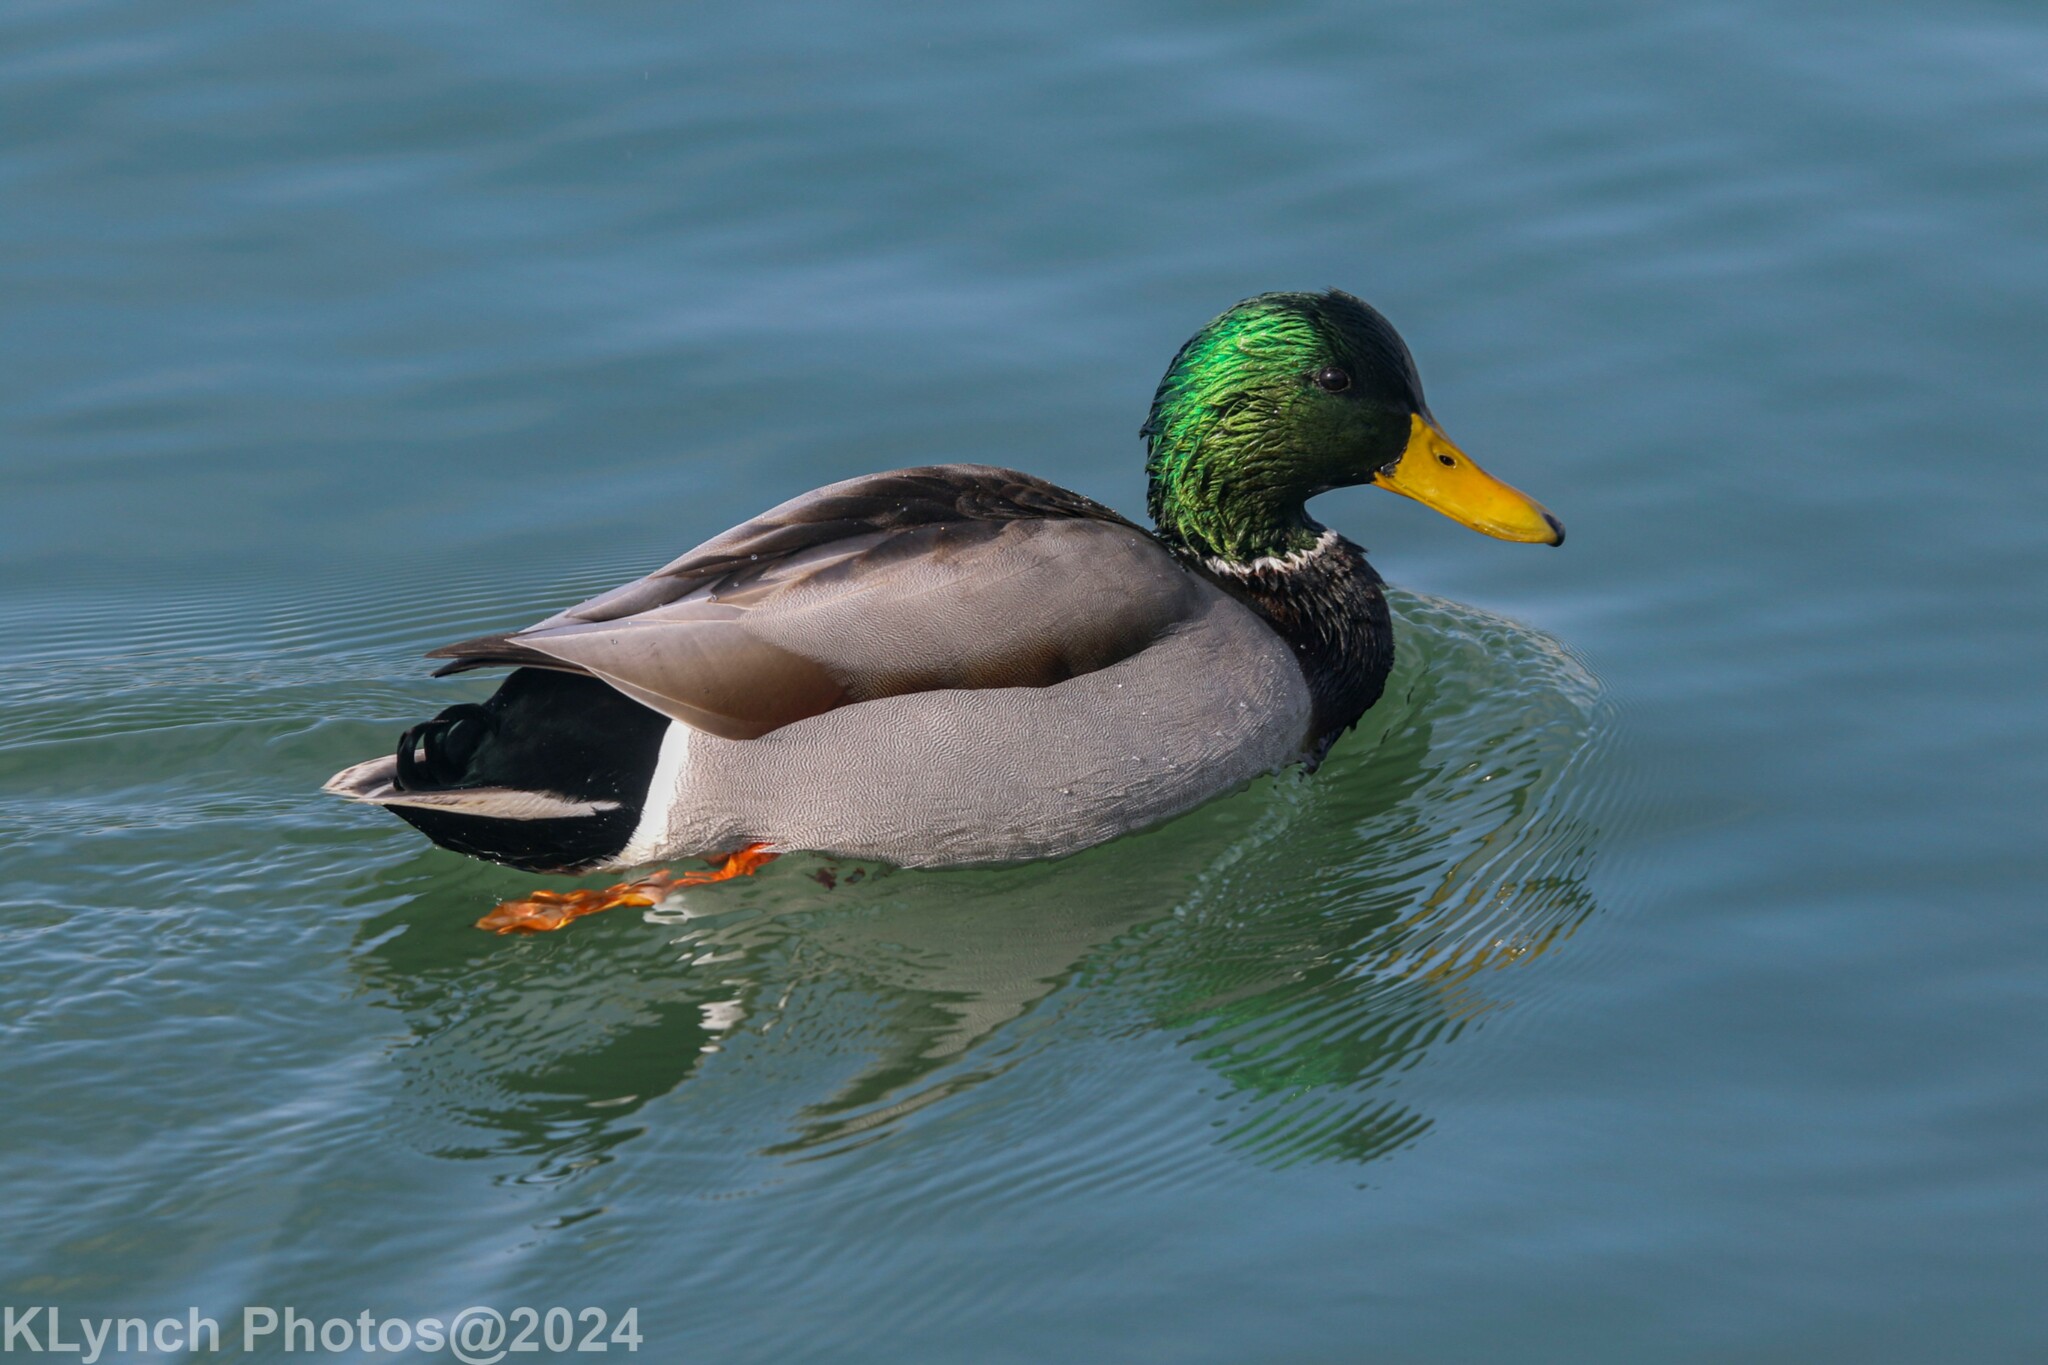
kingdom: Animalia
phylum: Chordata
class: Aves
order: Anseriformes
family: Anatidae
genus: Anas
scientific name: Anas platyrhynchos
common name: Mallard
